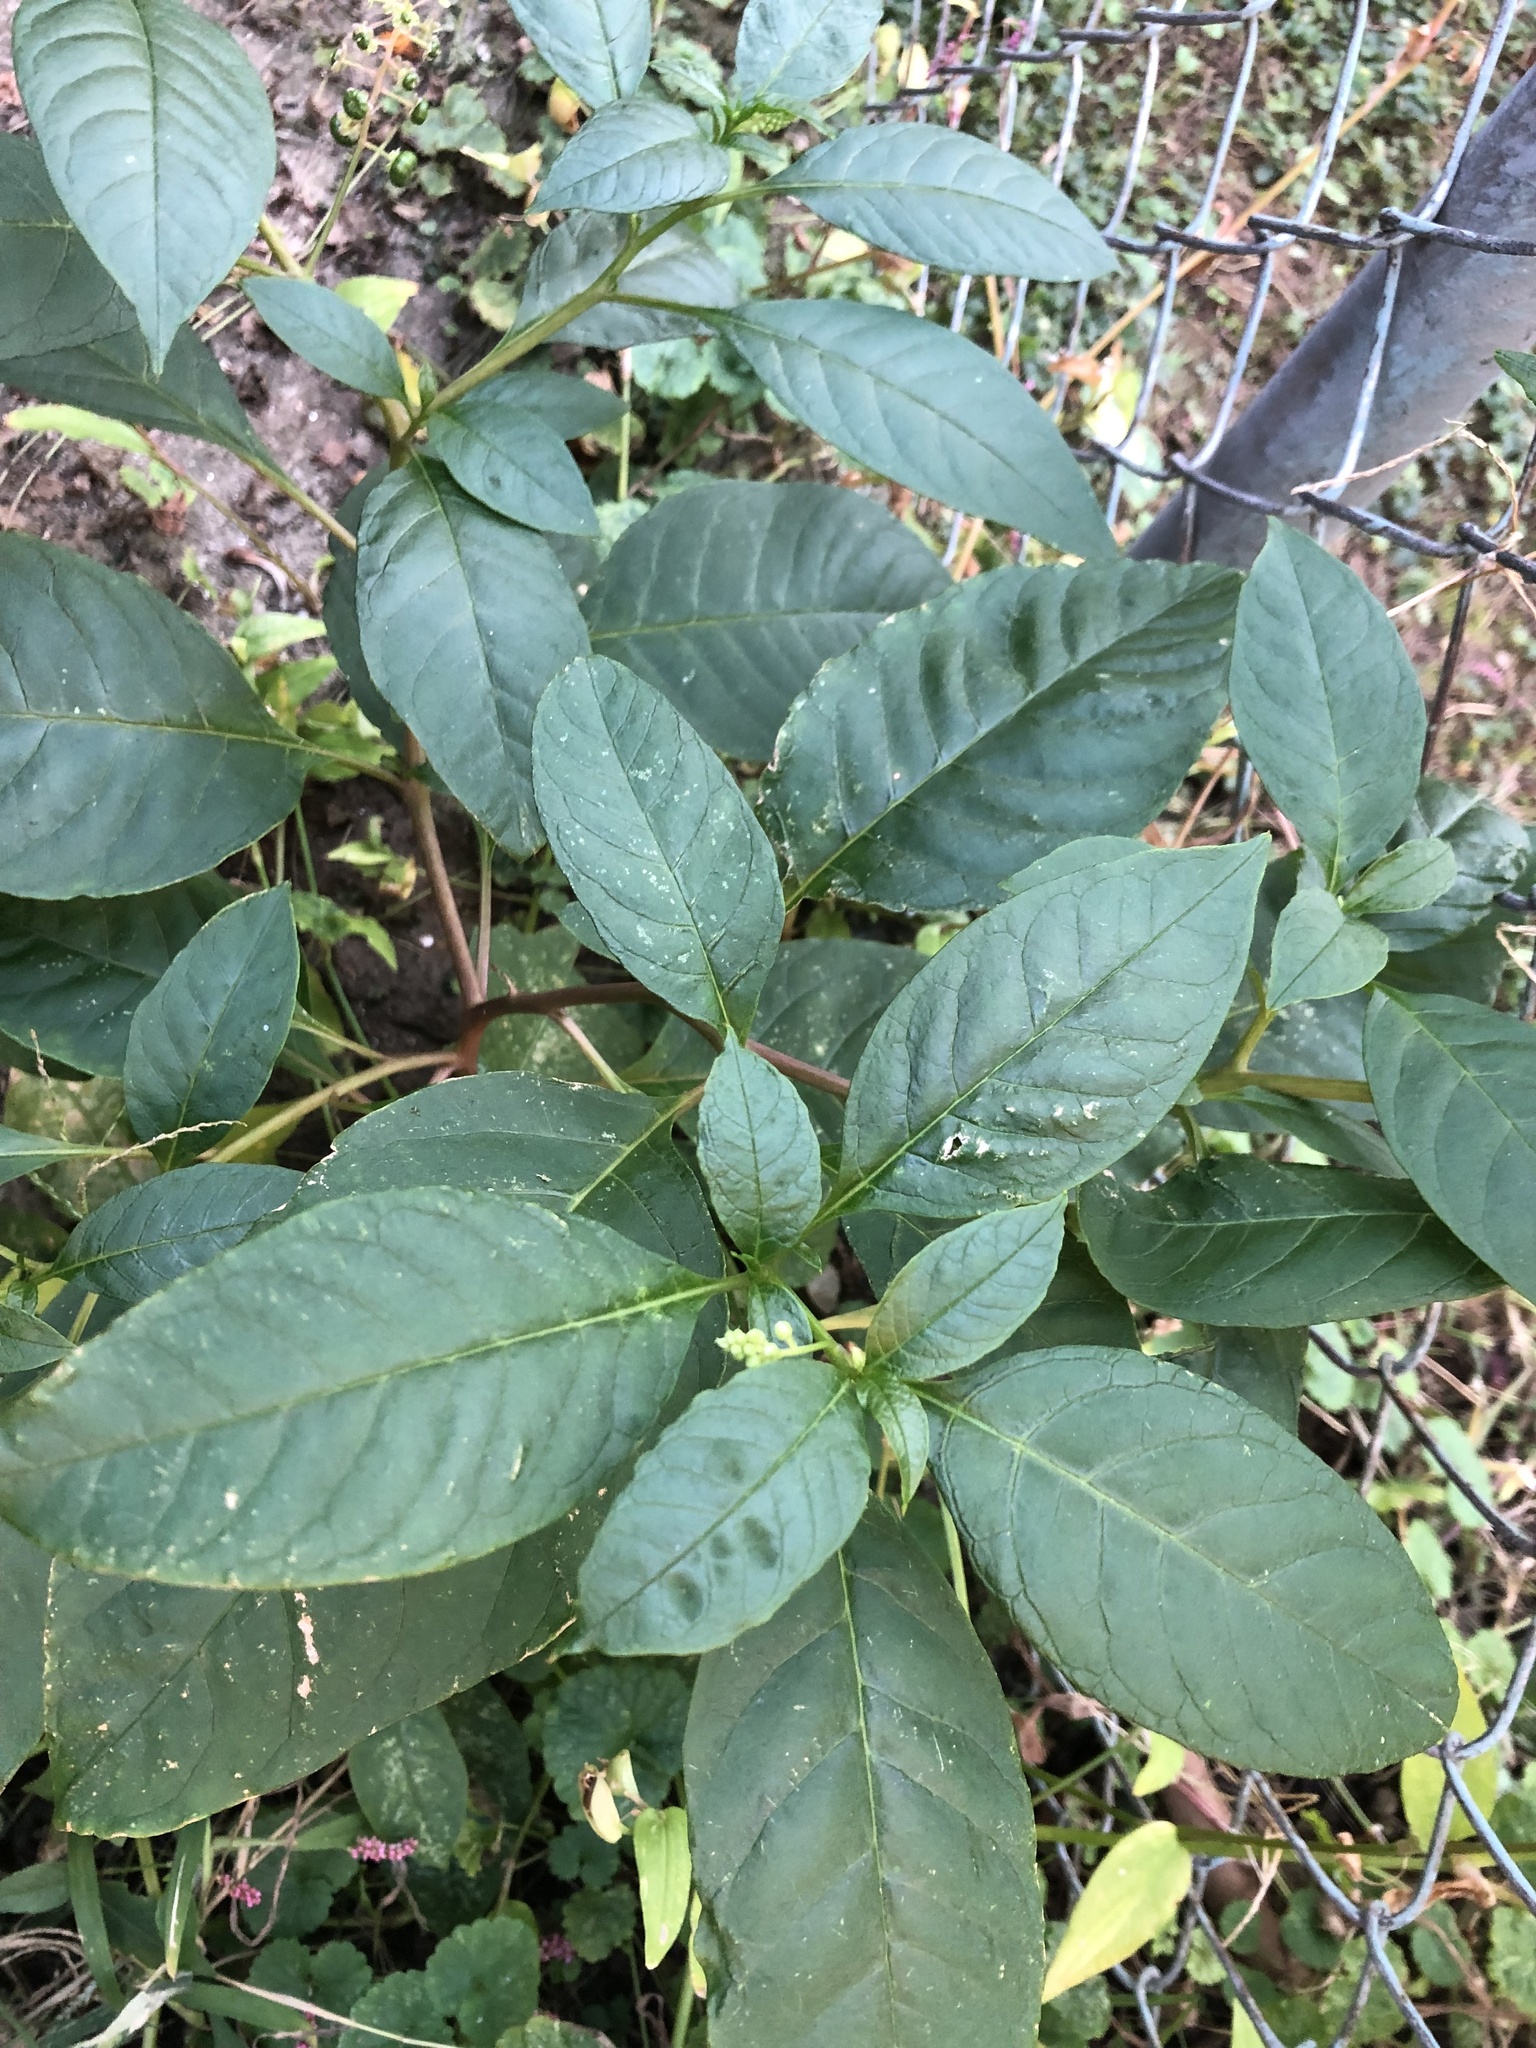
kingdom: Plantae
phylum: Tracheophyta
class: Magnoliopsida
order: Caryophyllales
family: Phytolaccaceae
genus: Phytolacca
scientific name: Phytolacca americana
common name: American pokeweed
